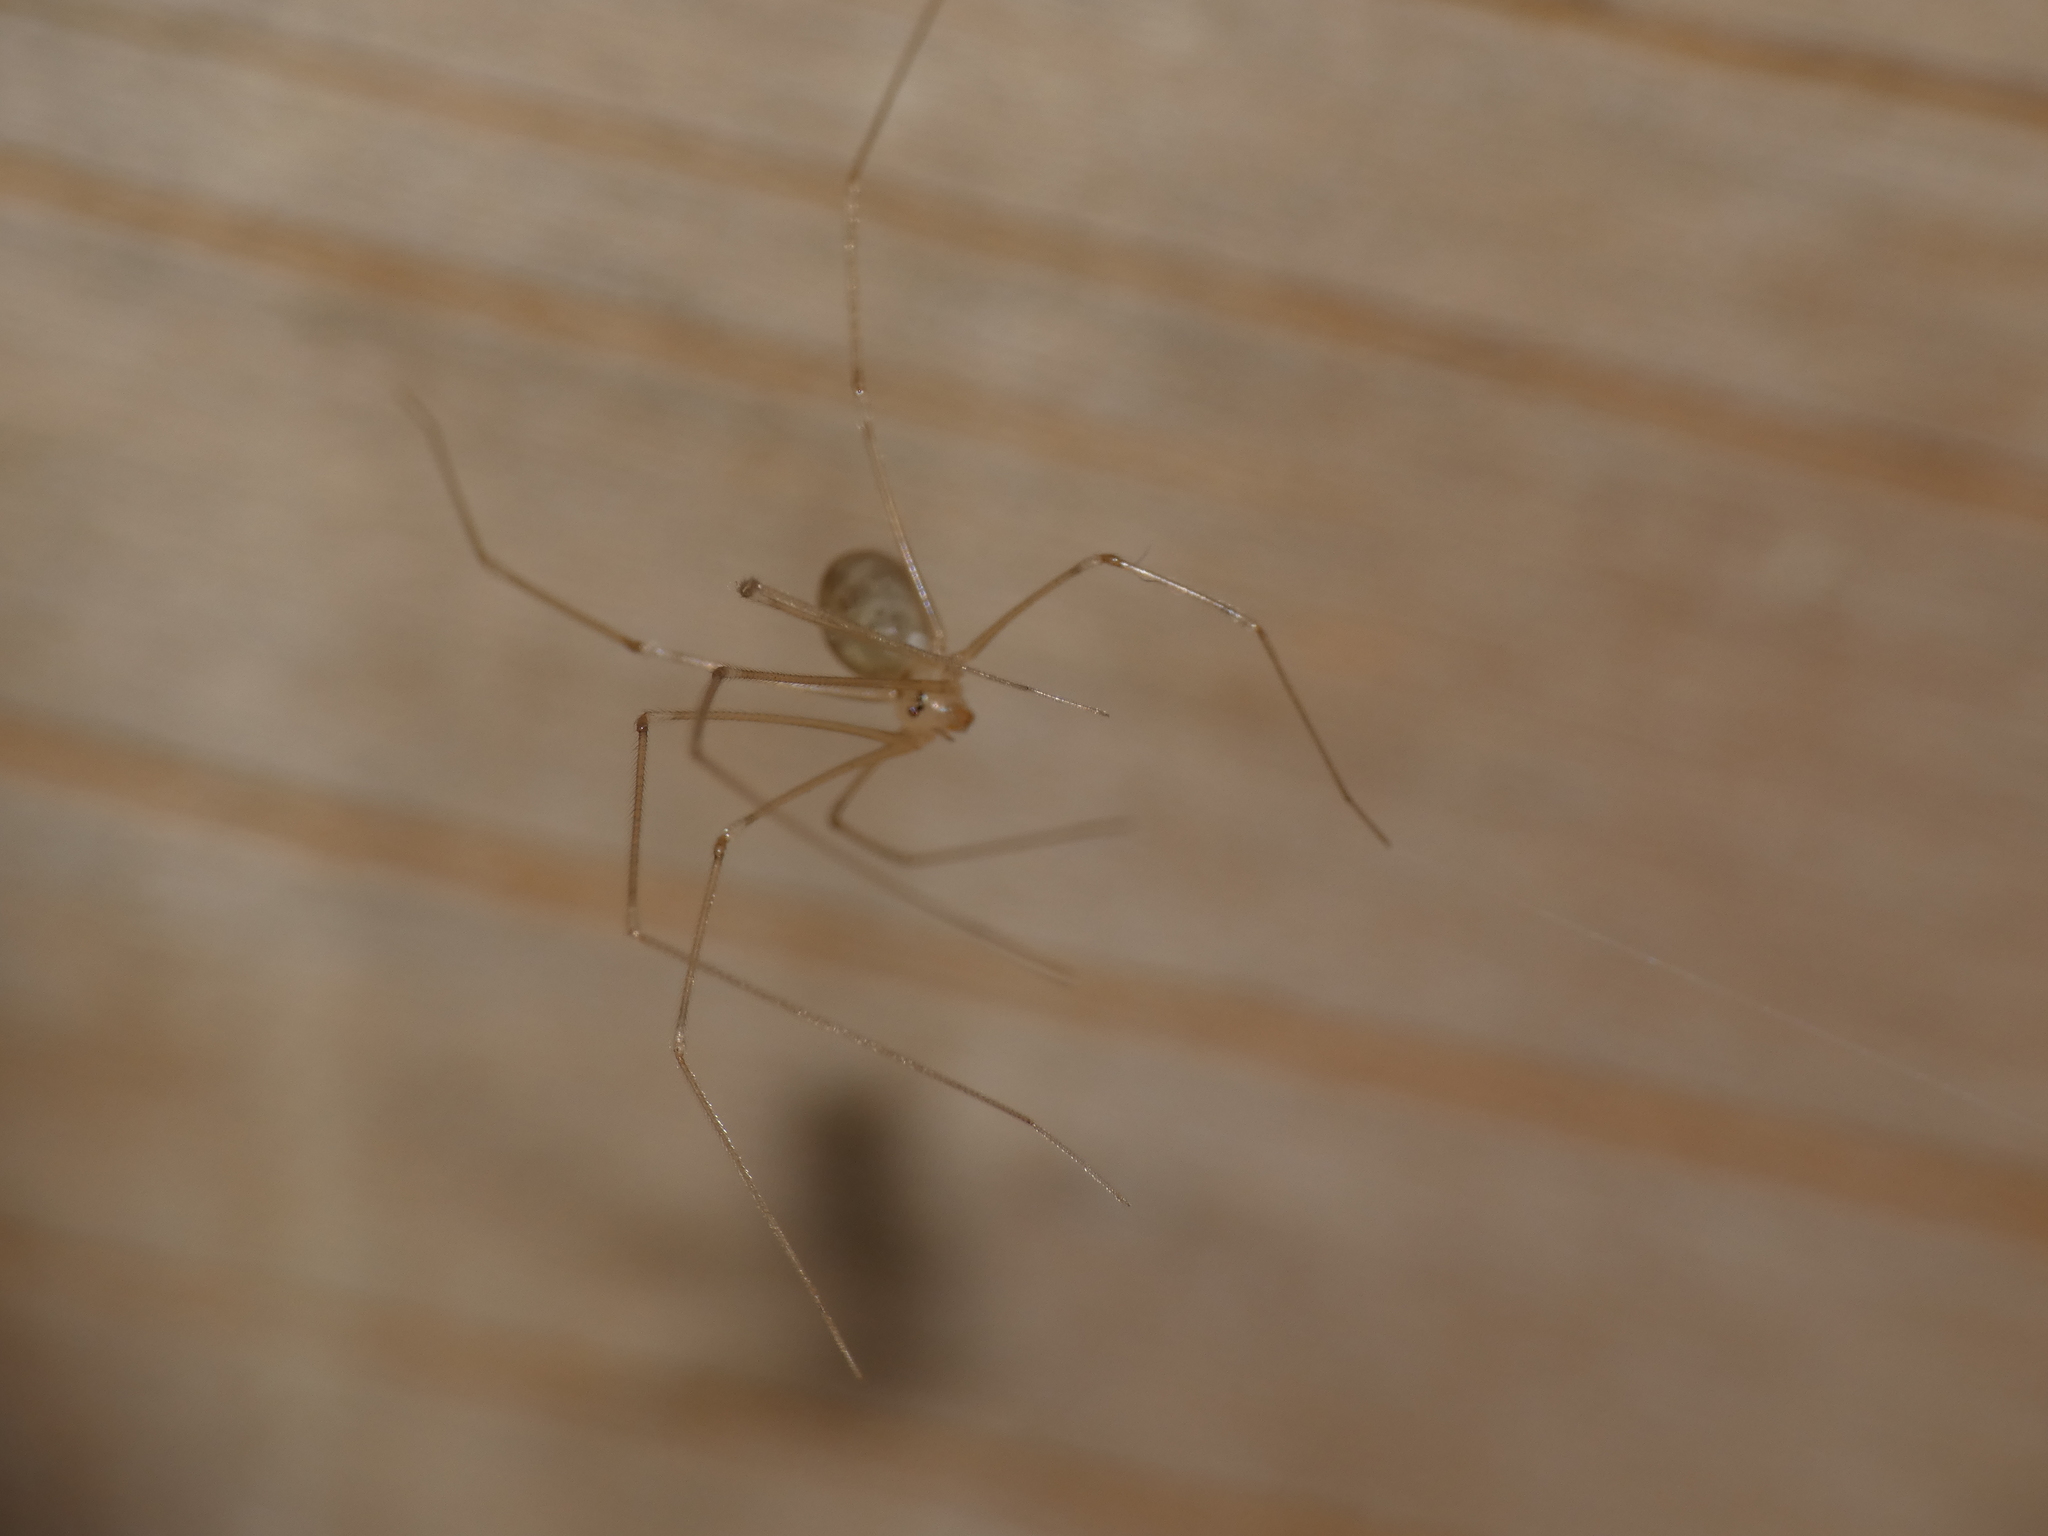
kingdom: Animalia
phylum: Arthropoda
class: Arachnida
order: Araneae
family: Pholcidae
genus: Pholcus
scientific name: Pholcus phalangioides
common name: Longbodied cellar spider
